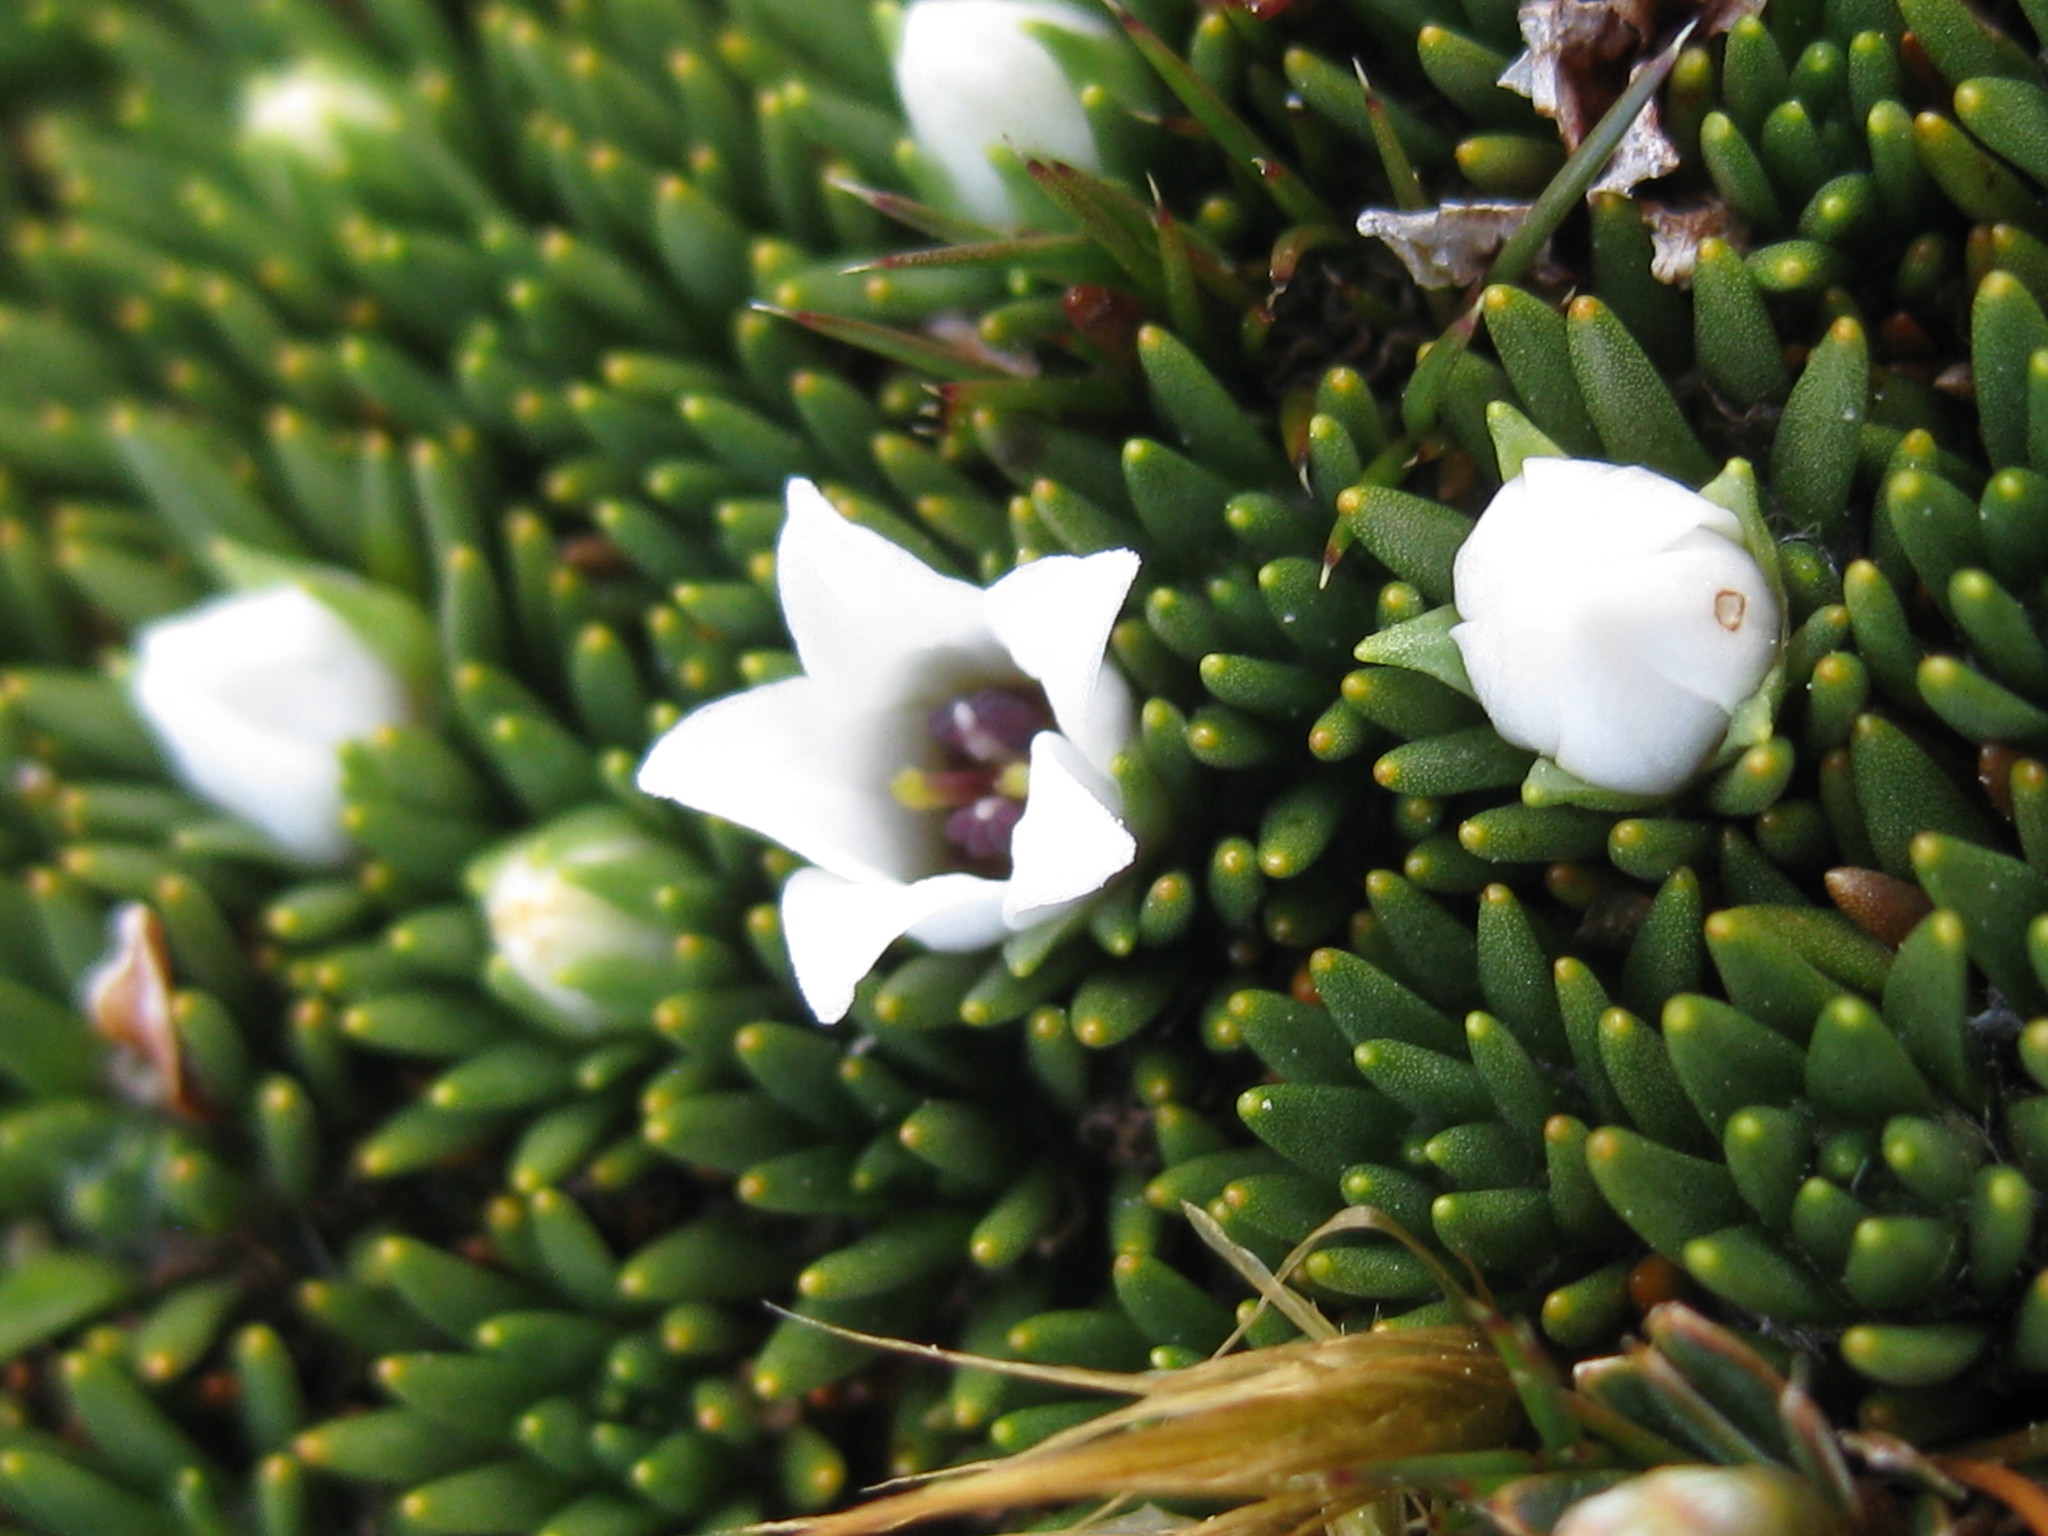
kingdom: Plantae
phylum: Tracheophyta
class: Magnoliopsida
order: Asterales
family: Stylidiaceae
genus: Donatia
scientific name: Donatia novae-zelandiae
